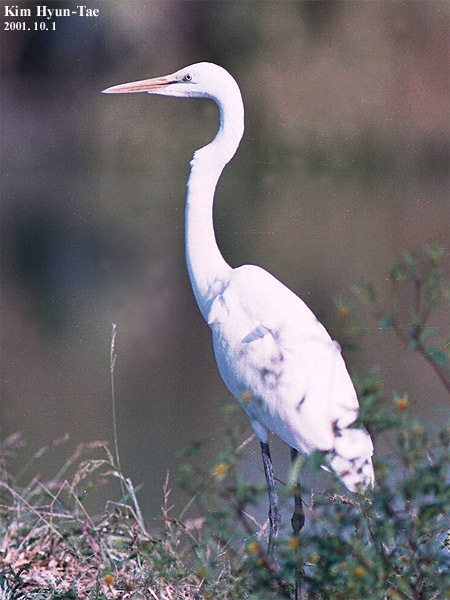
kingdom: Animalia
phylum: Chordata
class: Aves
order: Pelecaniformes
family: Ardeidae
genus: Ardea
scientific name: Ardea alba
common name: Great egret
